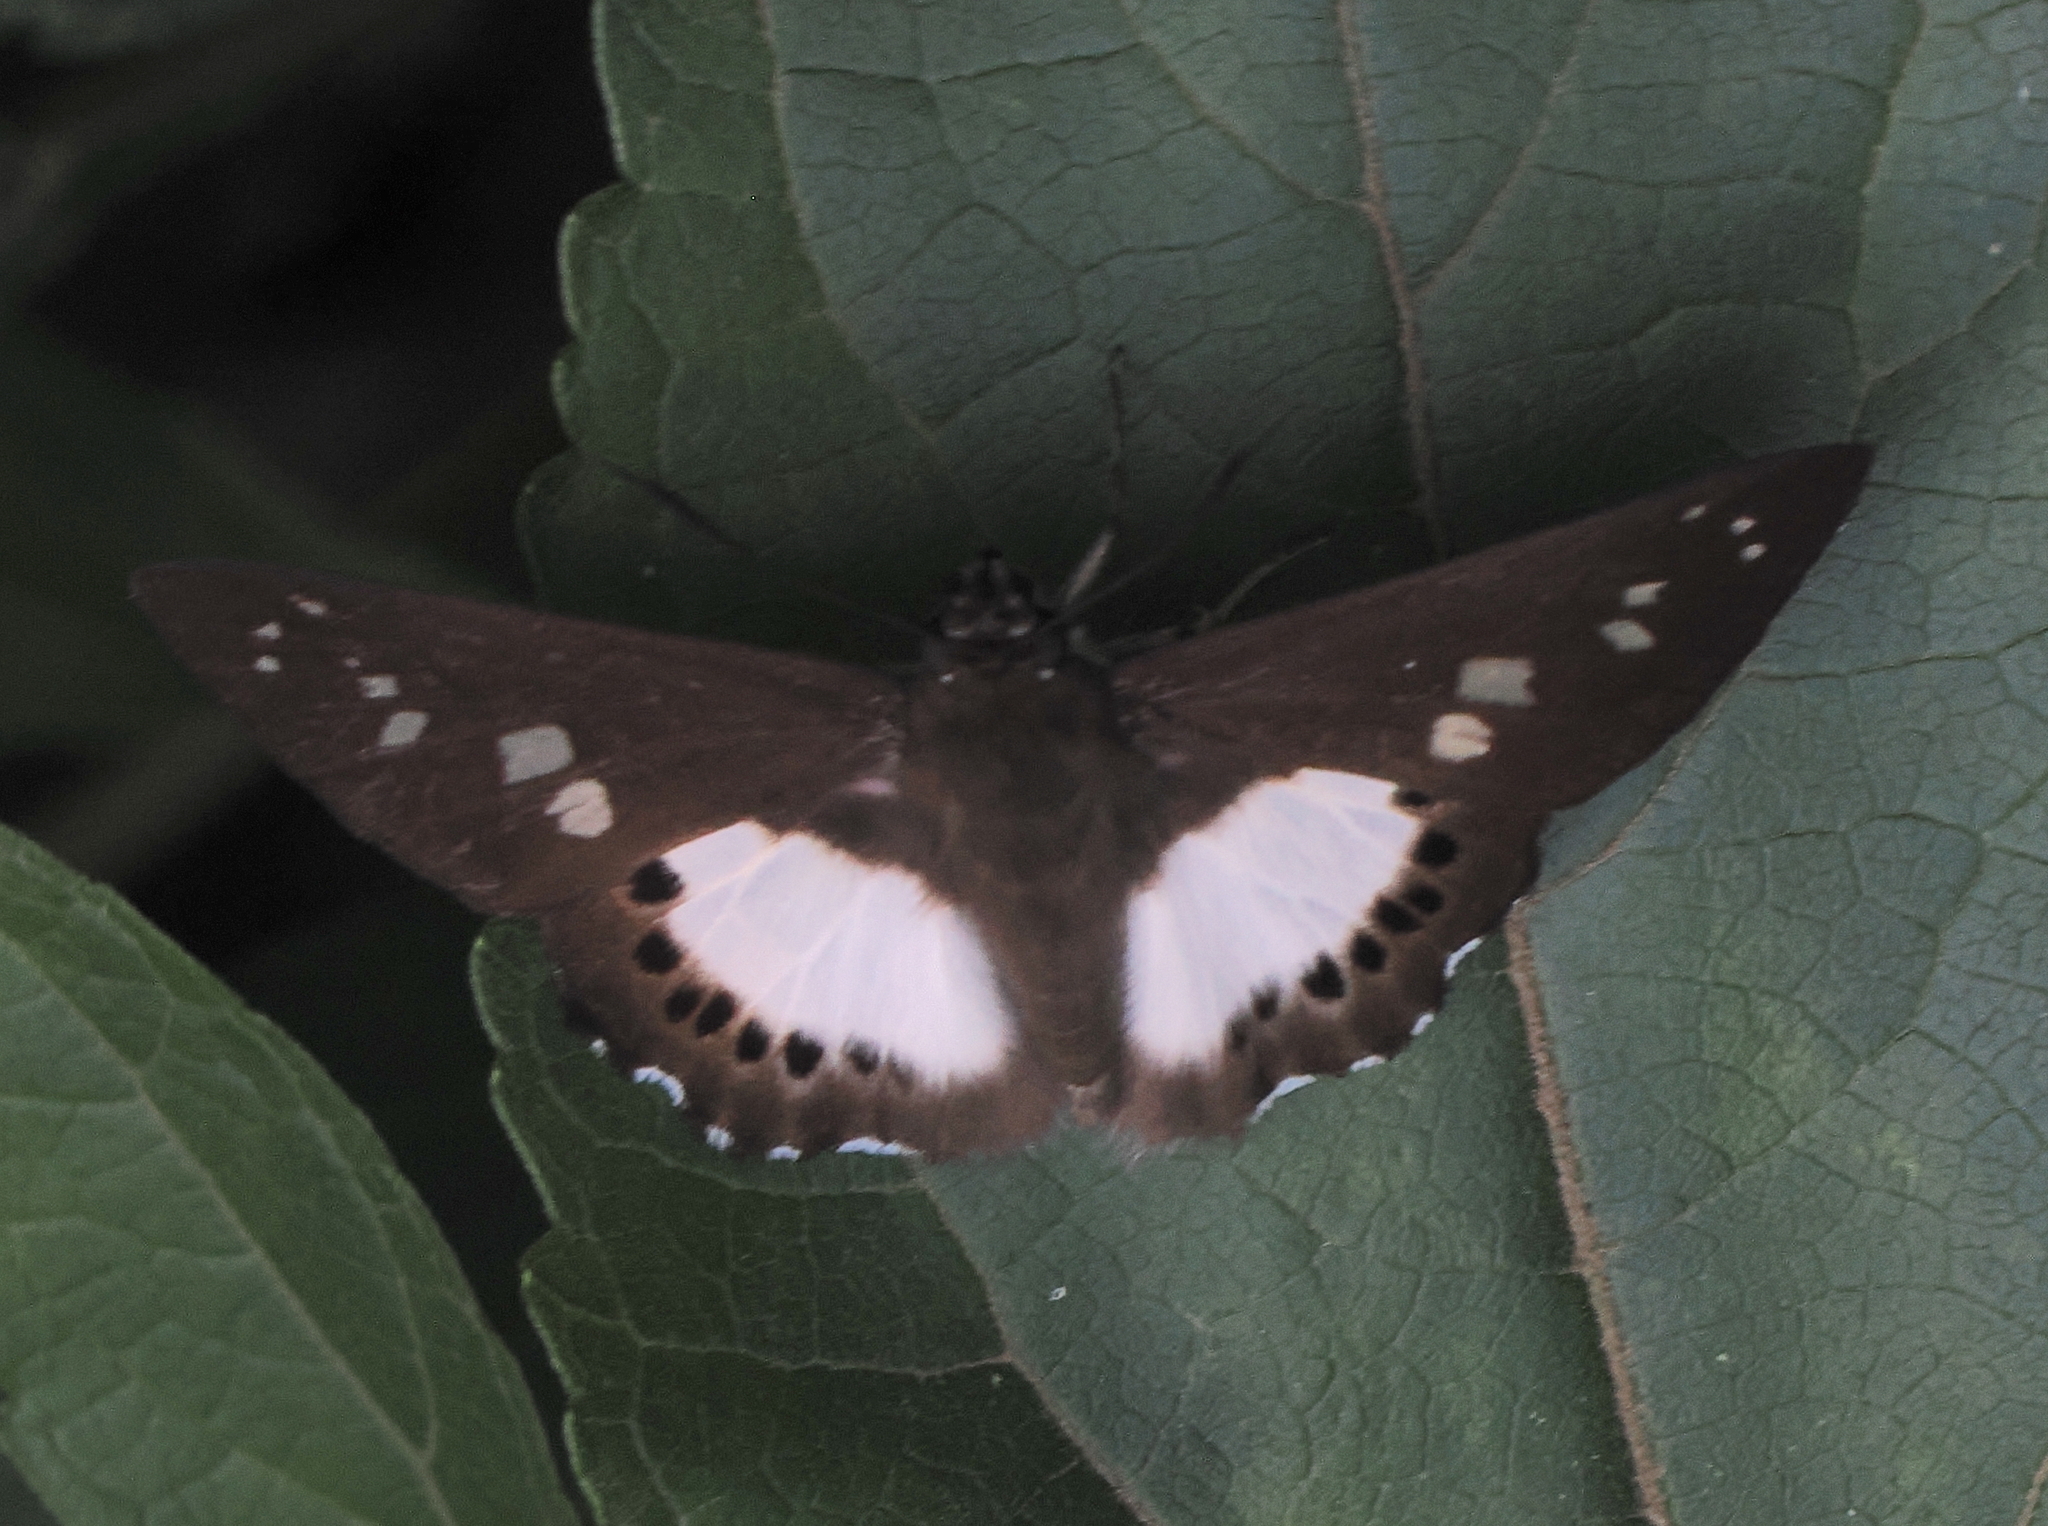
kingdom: Animalia
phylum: Arthropoda
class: Insecta
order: Lepidoptera
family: Hesperiidae
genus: Seseria
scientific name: Seseria affinis
